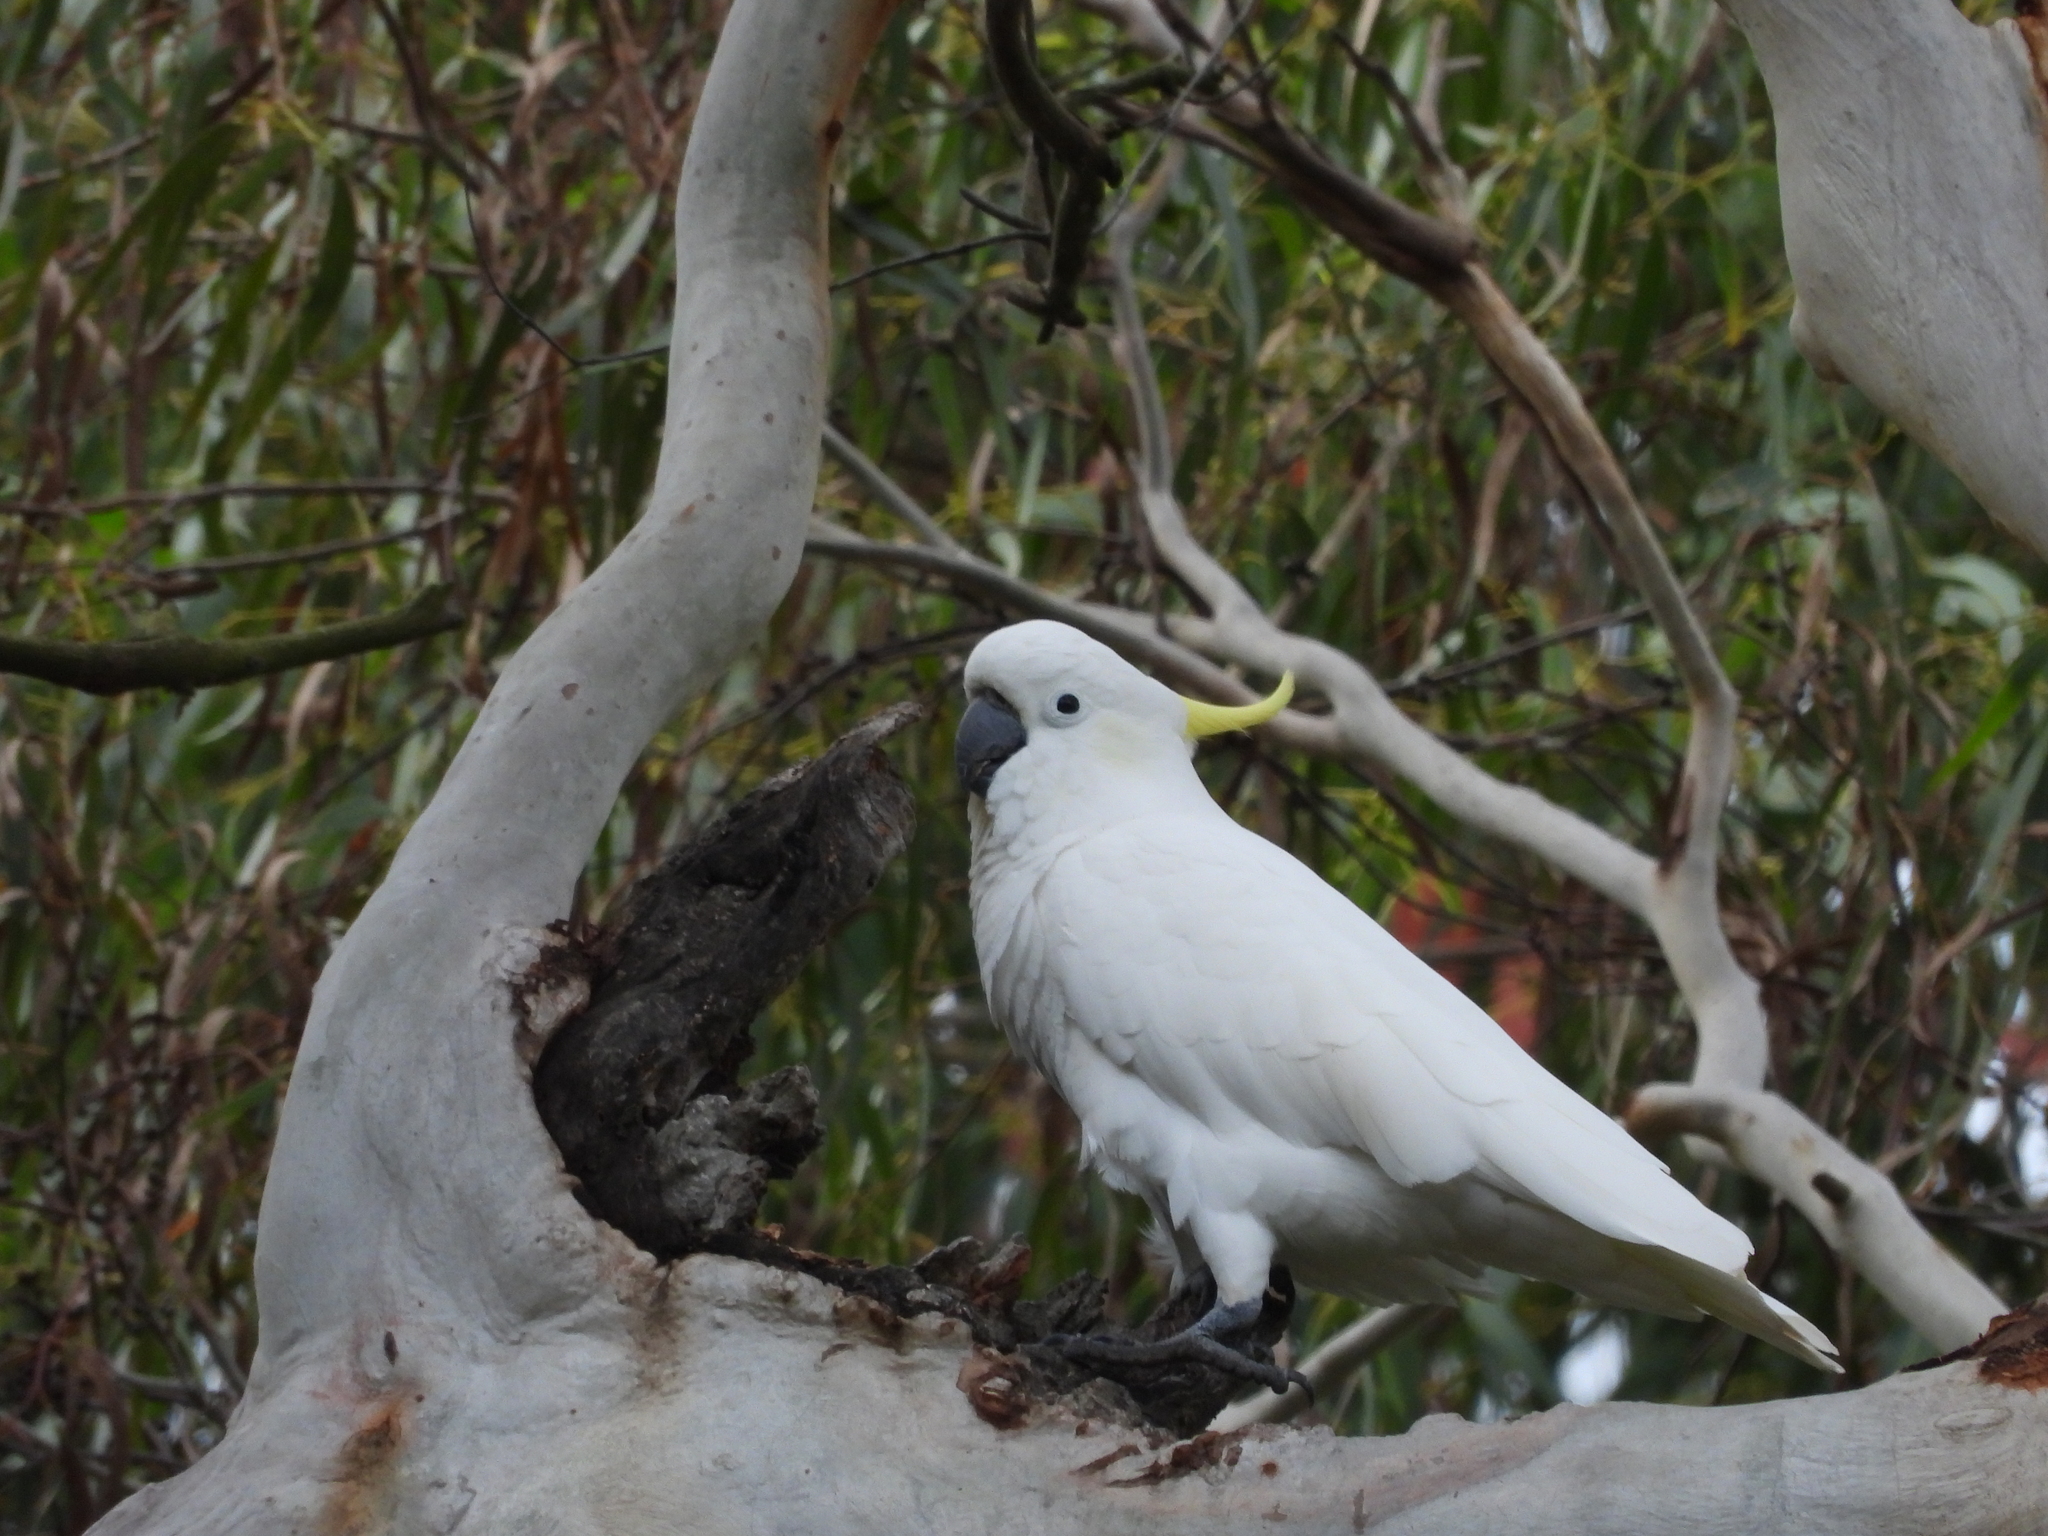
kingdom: Animalia
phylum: Chordata
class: Aves
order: Psittaciformes
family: Psittacidae
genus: Cacatua
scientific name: Cacatua galerita
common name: Sulphur-crested cockatoo
